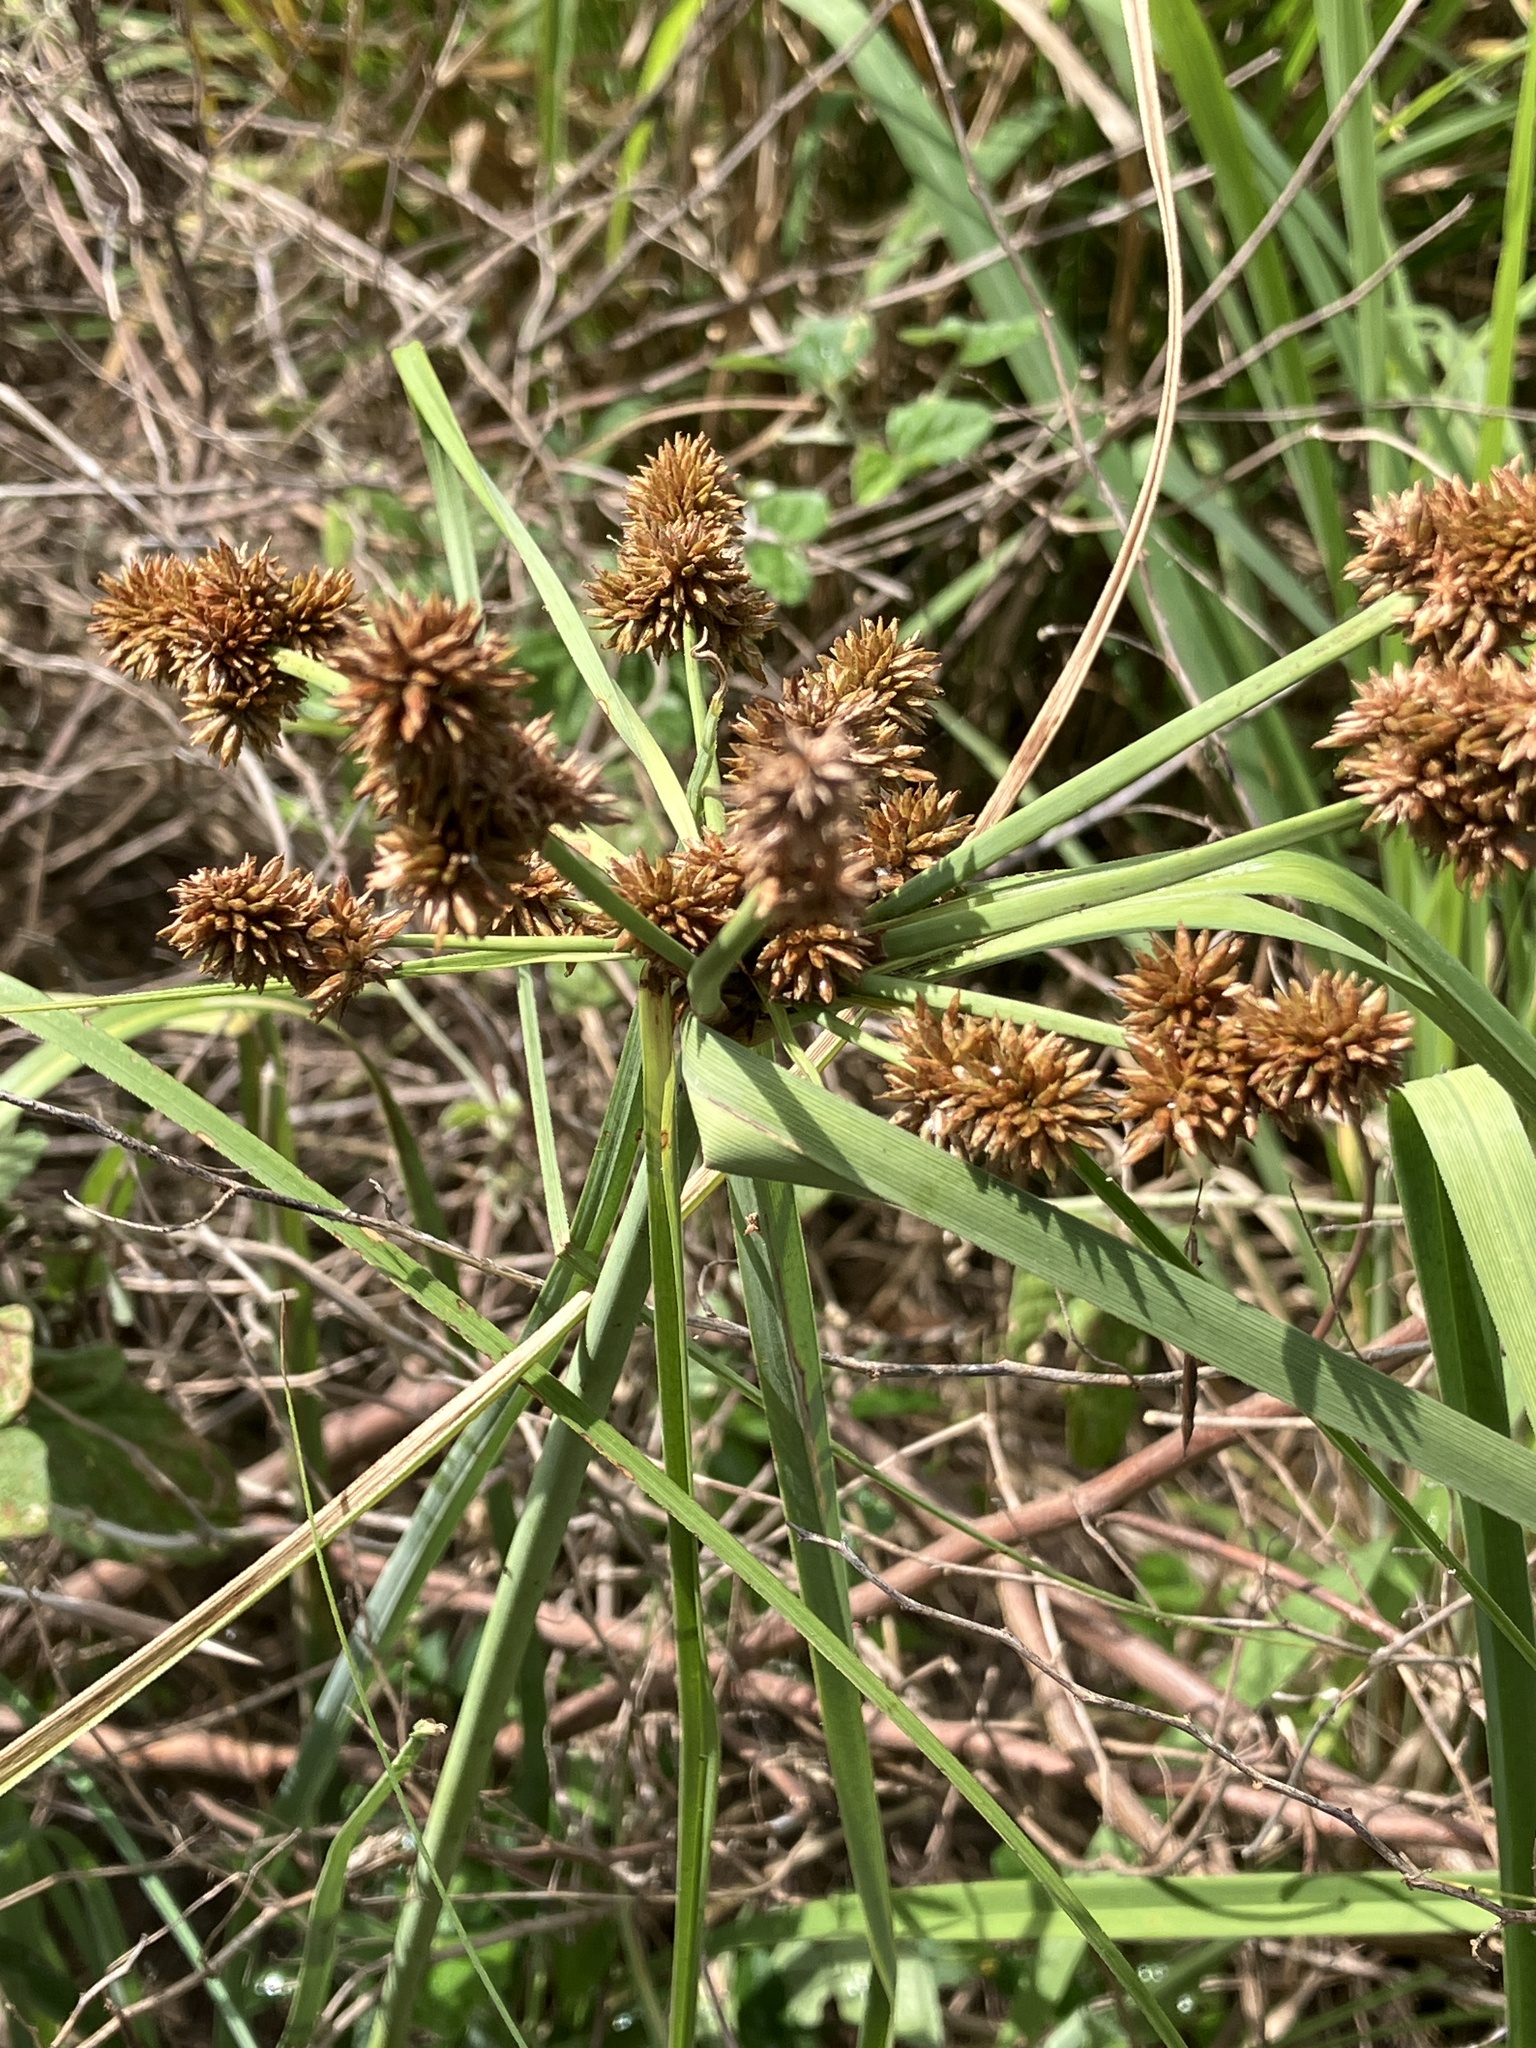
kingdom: Plantae
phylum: Tracheophyta
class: Liliopsida
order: Poales
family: Cyperaceae
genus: Cyperus
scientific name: Cyperus ligularis
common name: Swamp flat sedge
